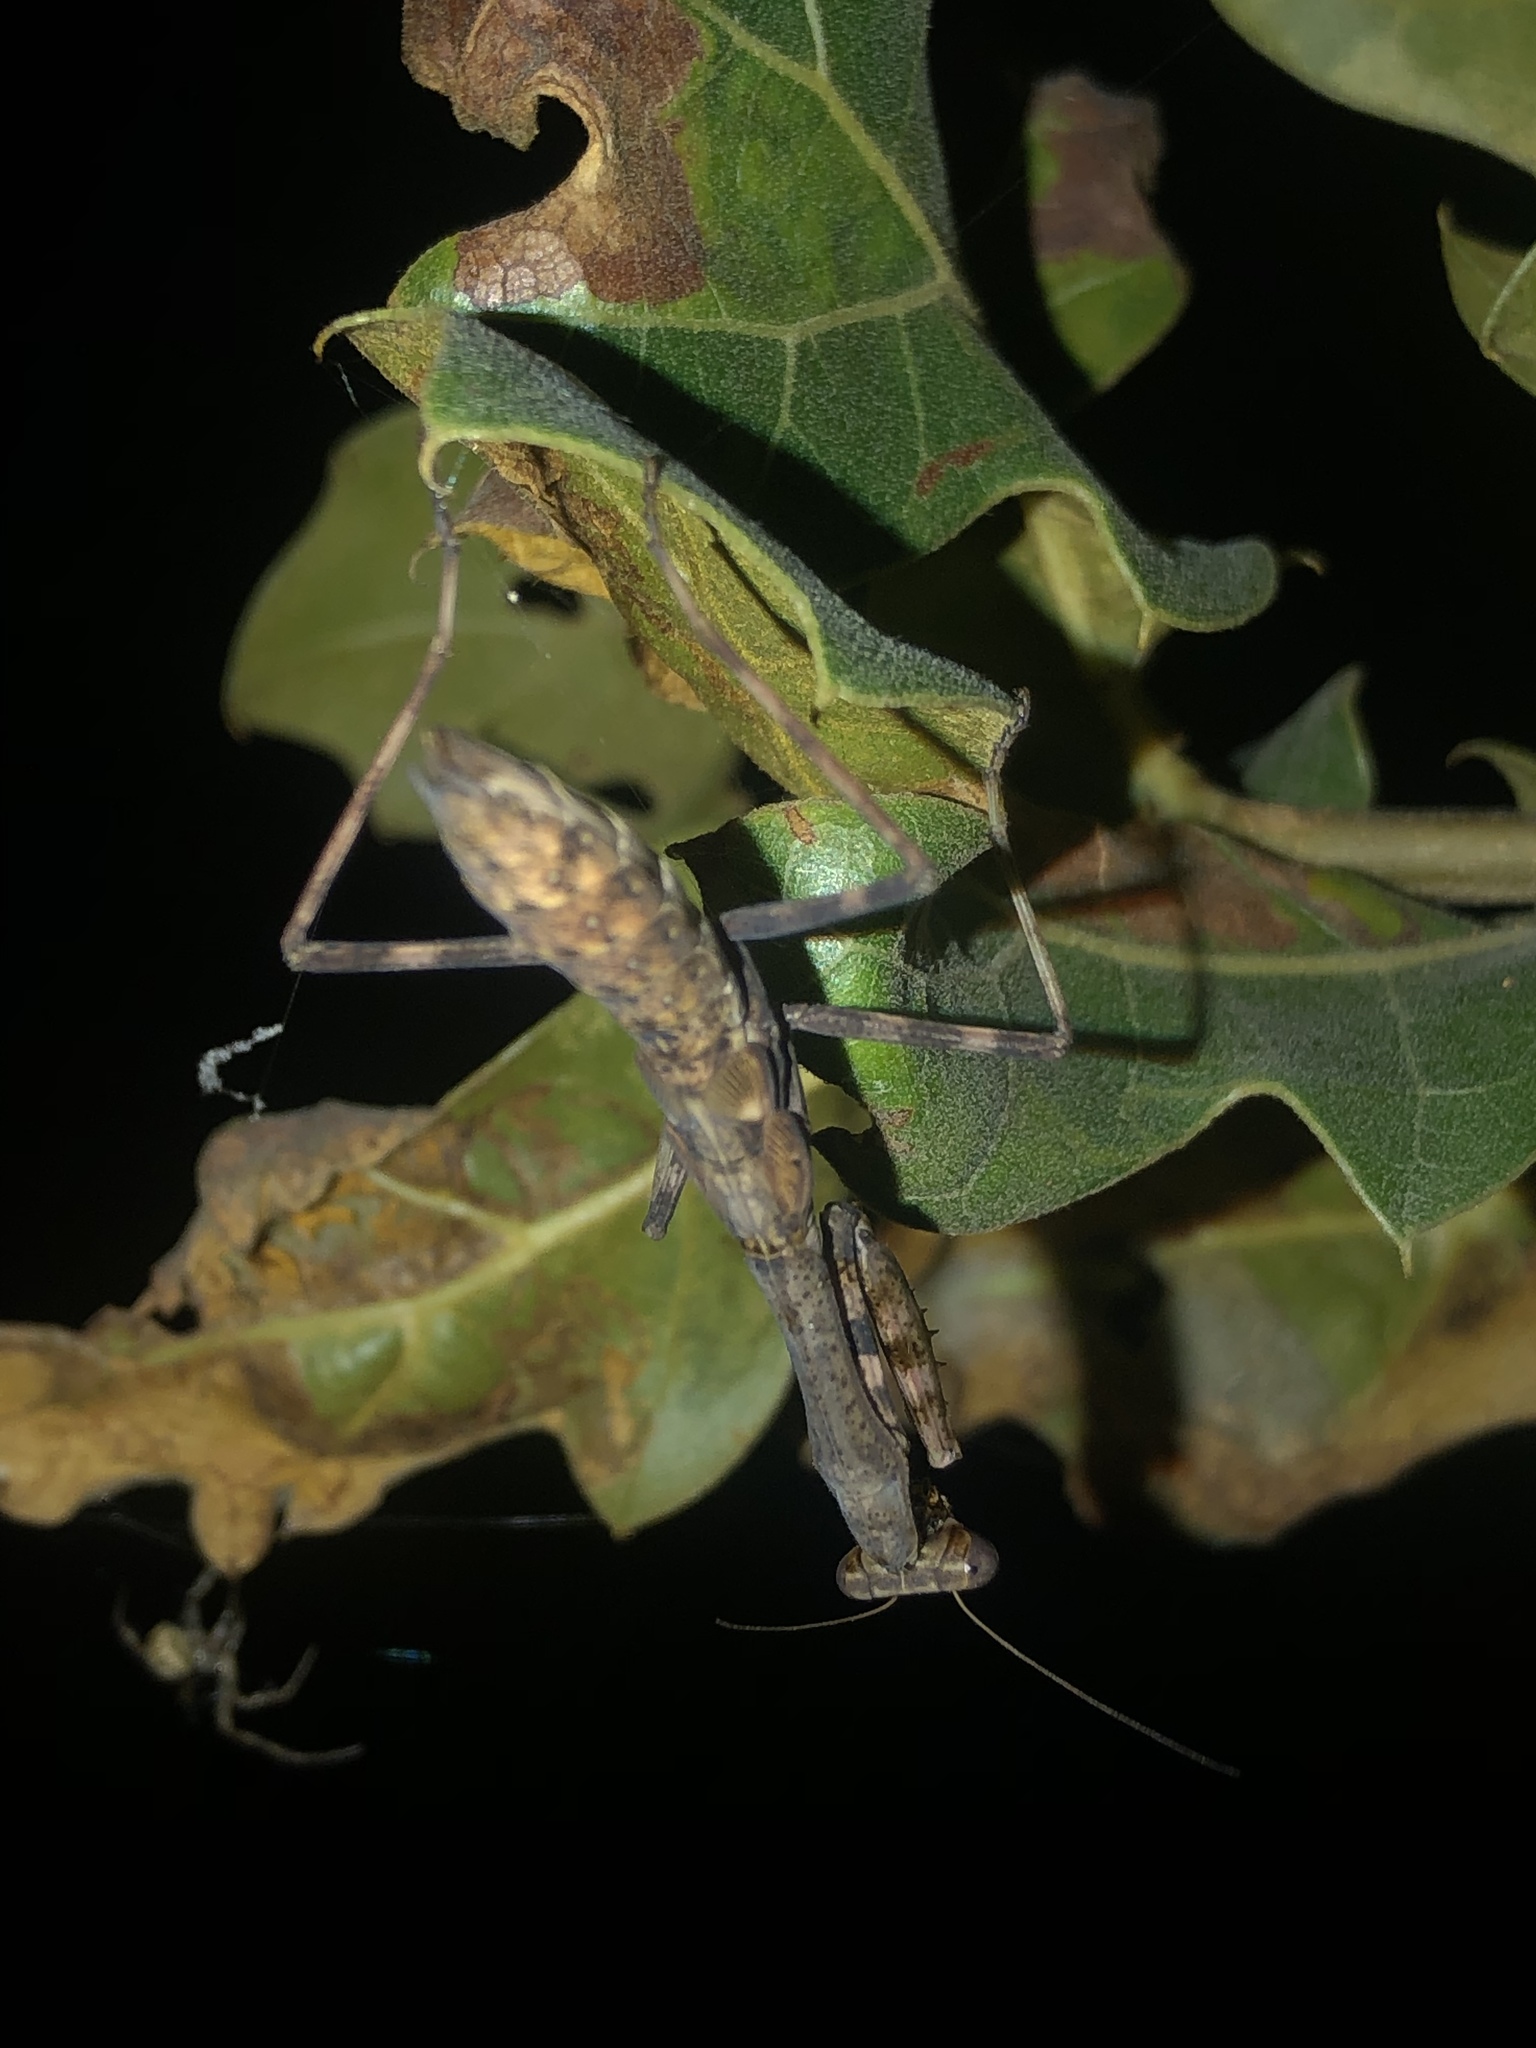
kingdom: Animalia
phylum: Arthropoda
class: Insecta
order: Mantodea
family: Mantidae
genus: Stagmomantis
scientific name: Stagmomantis carolina
